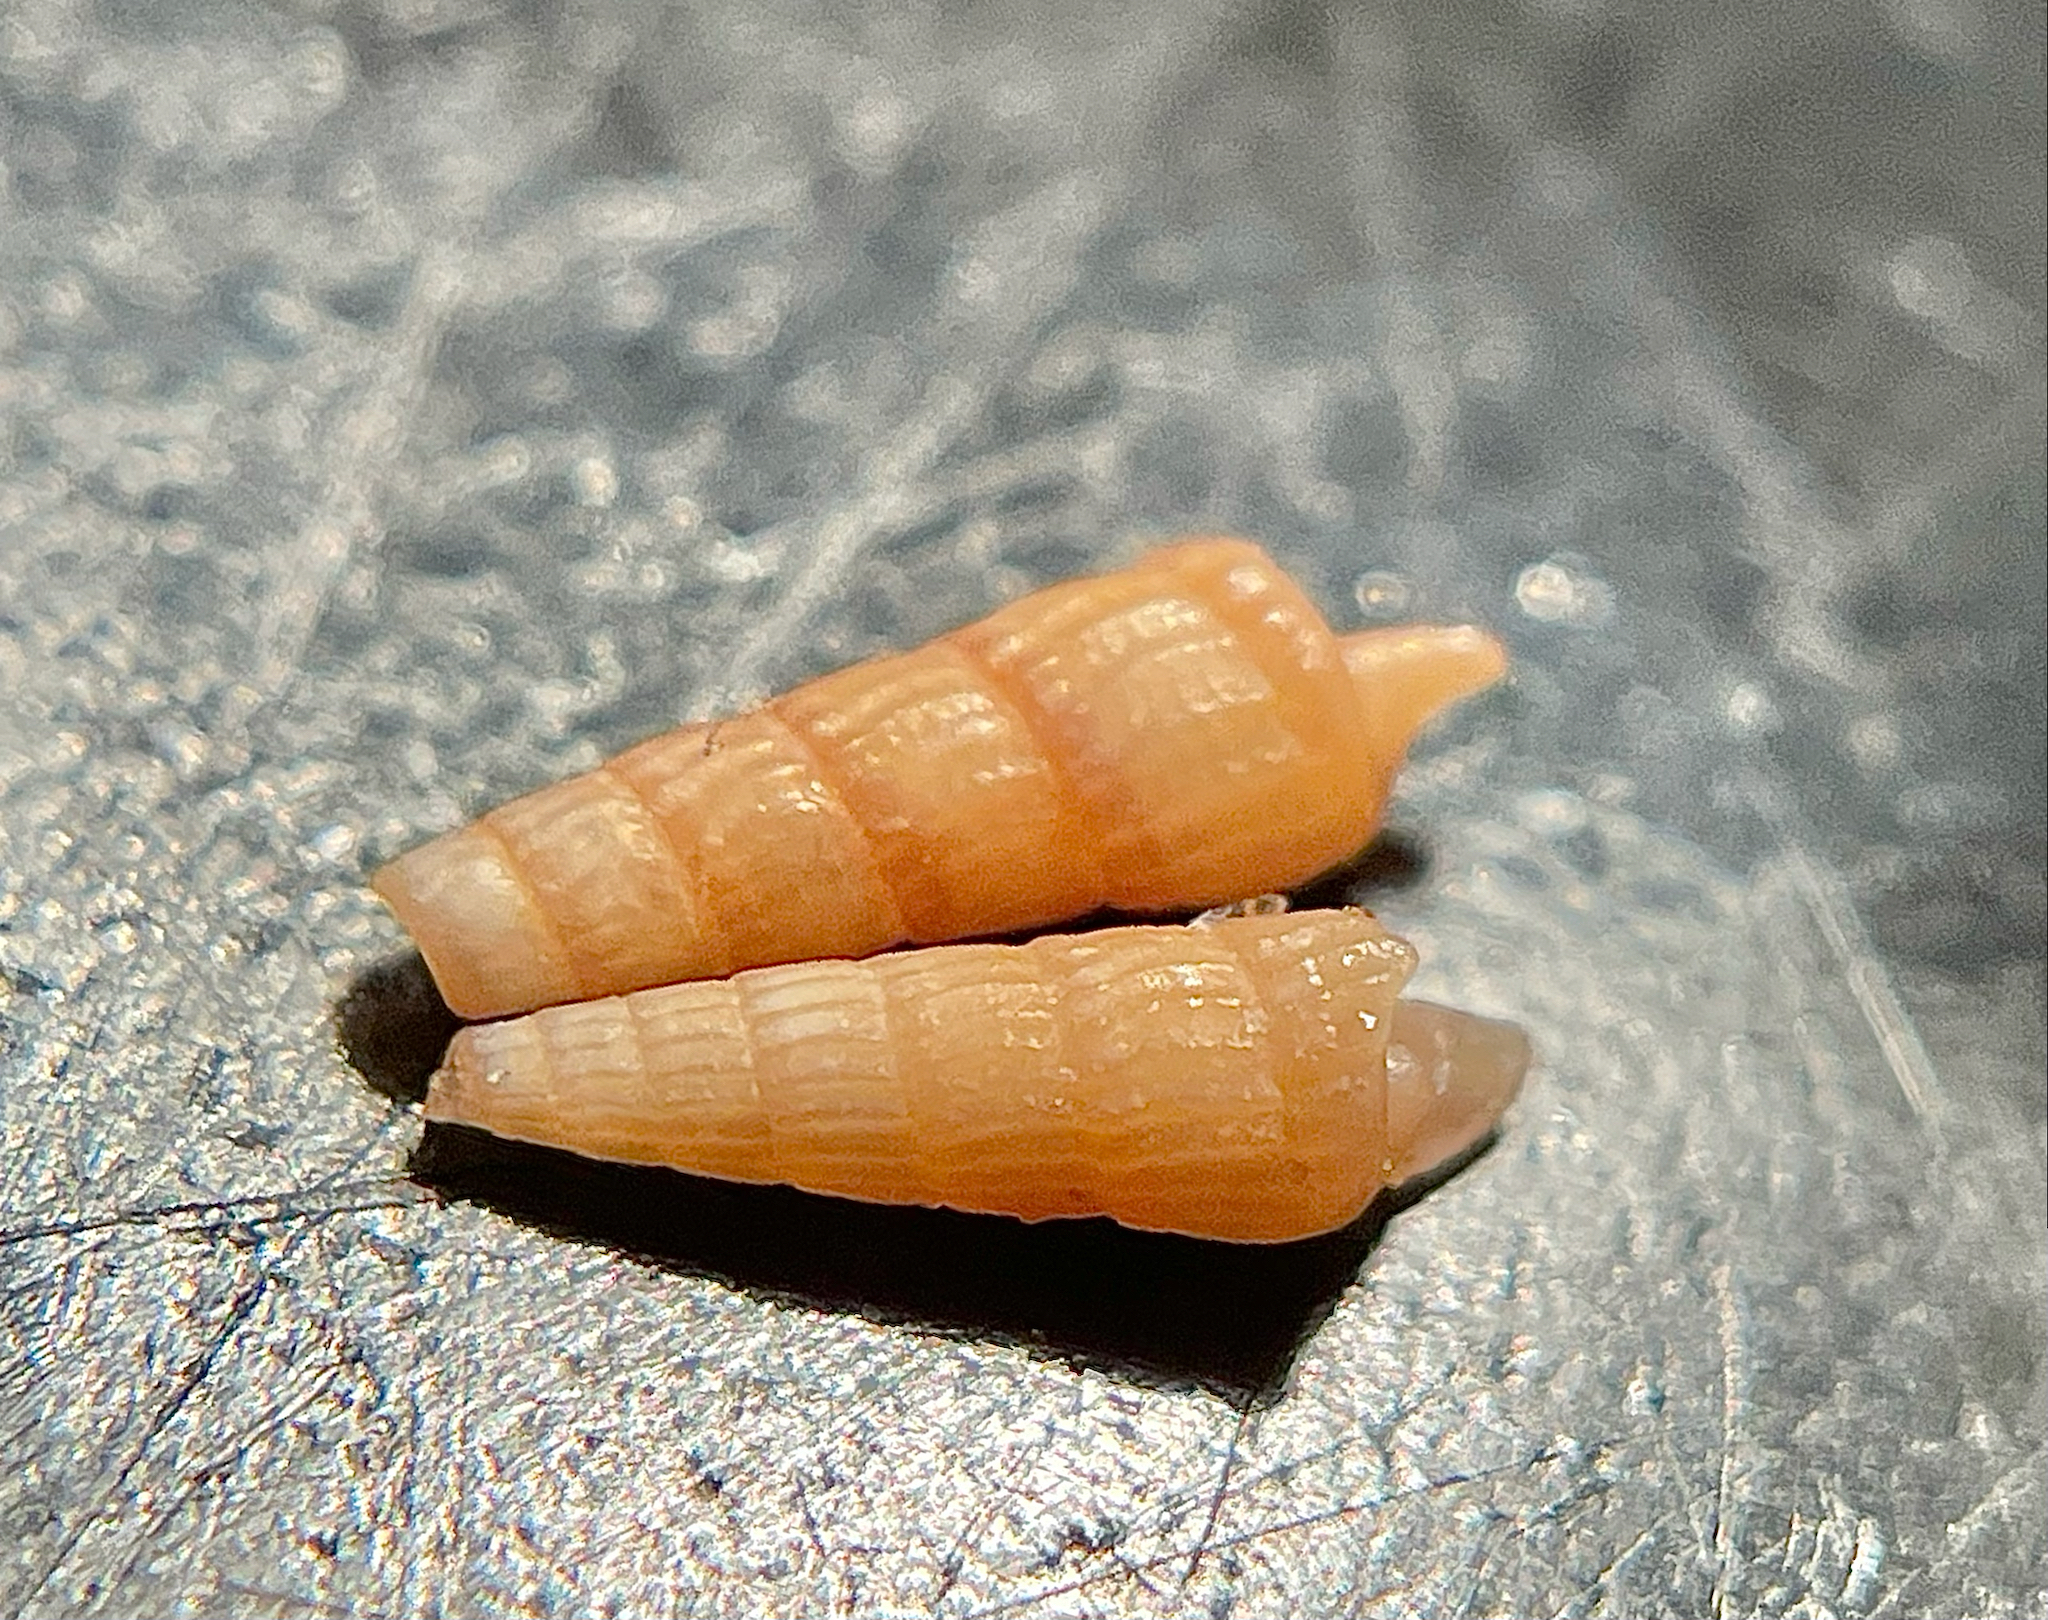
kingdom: Animalia
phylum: Mollusca
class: Gastropoda
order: Neogastropoda
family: Terebridae
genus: Neoterebra
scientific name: Neoterebra protexta
